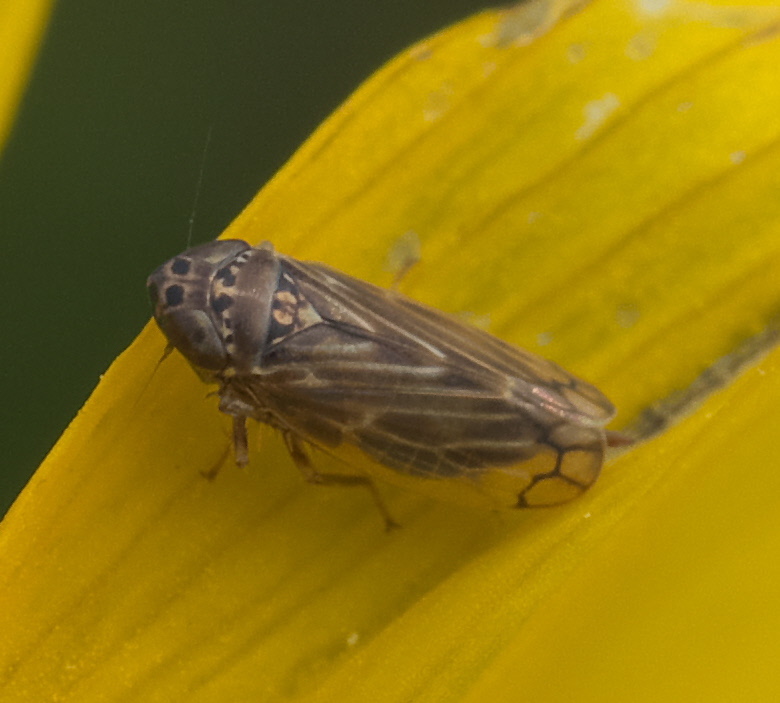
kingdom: Animalia
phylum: Arthropoda
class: Insecta
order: Hemiptera
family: Cicadellidae
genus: Stirellus
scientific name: Stirellus bicolor
